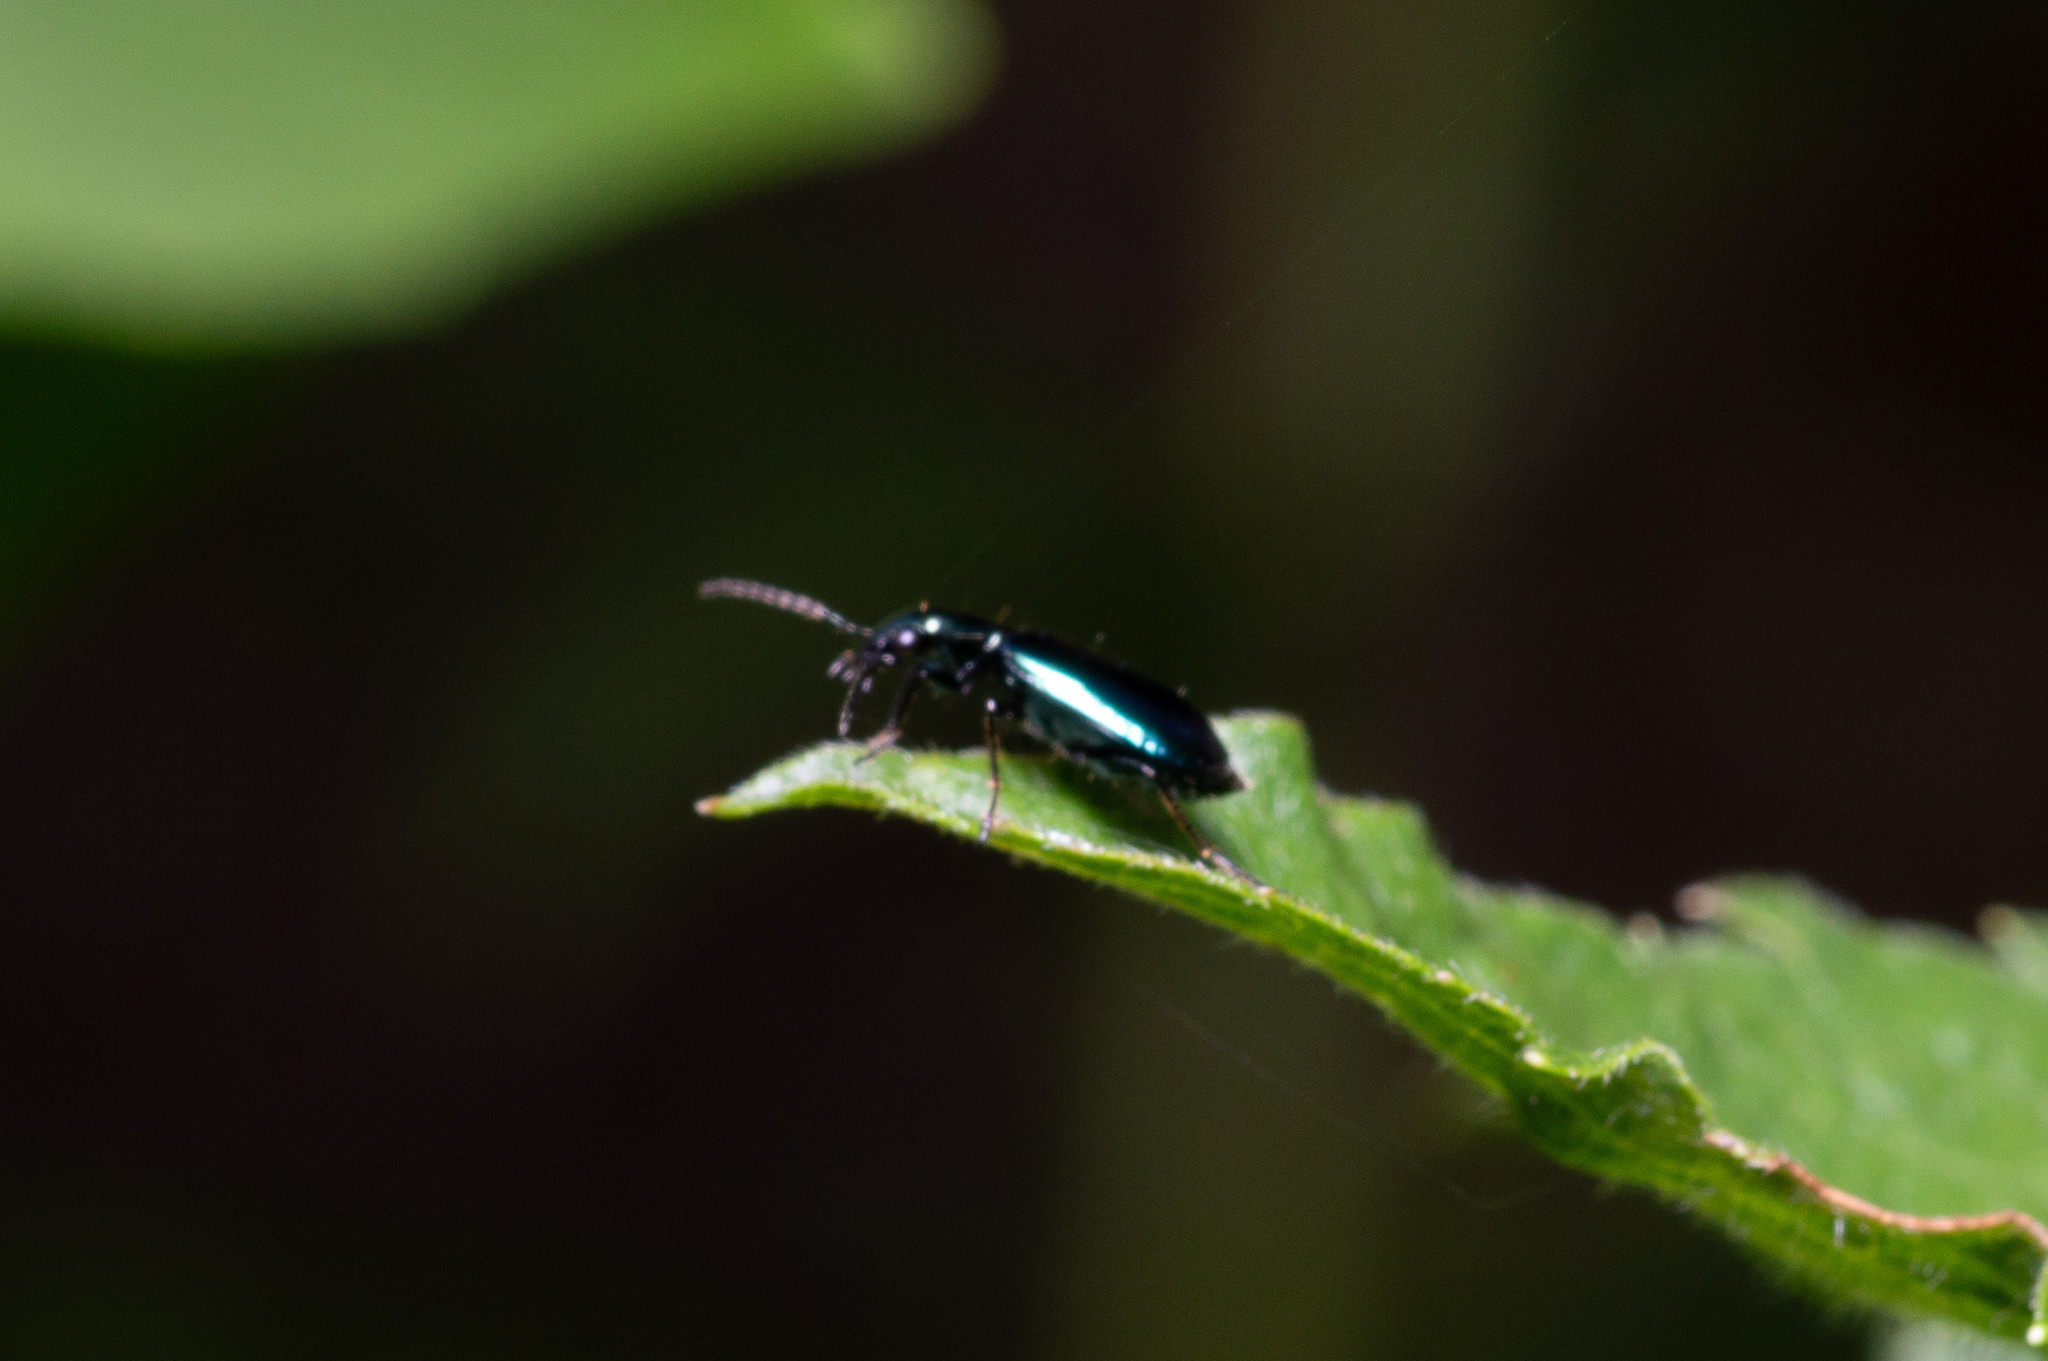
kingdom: Animalia
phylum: Arthropoda
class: Insecta
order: Coleoptera
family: Carabidae
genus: Lebia
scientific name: Lebia viridis
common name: Flower lebia beetle
